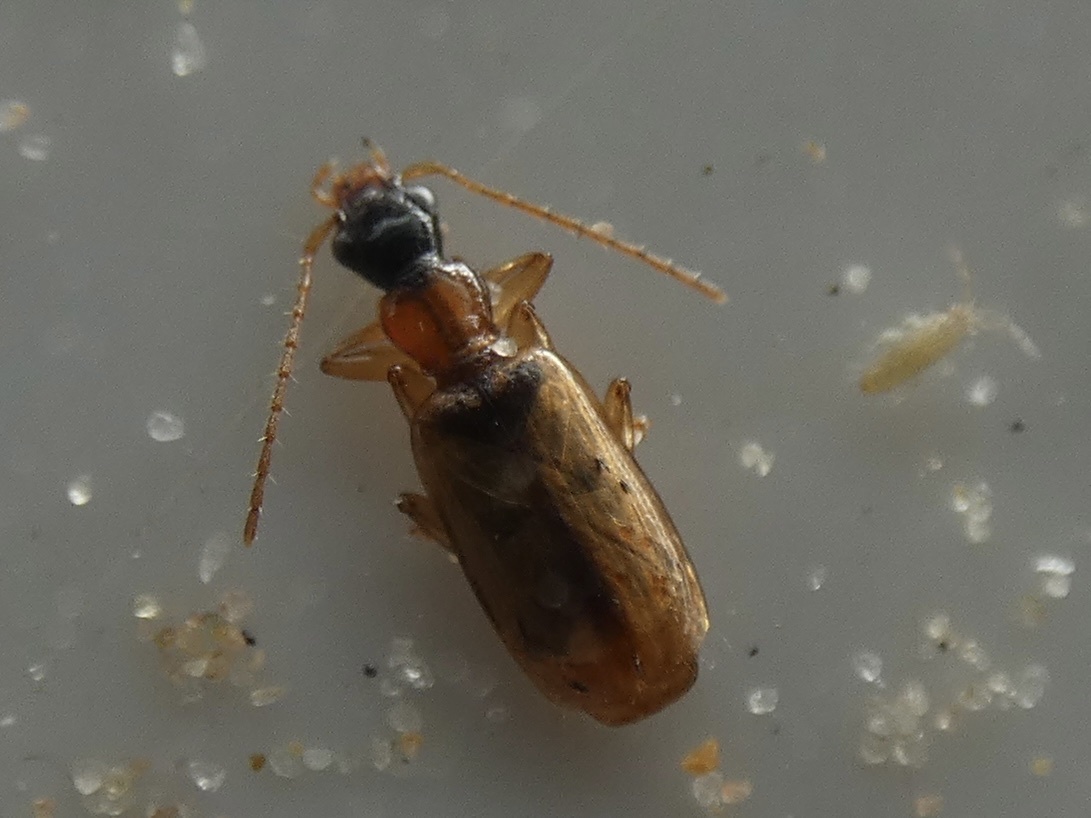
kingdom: Animalia
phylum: Arthropoda
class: Insecta
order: Coleoptera
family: Carabidae
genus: Demetrias
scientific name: Demetrias atricapillus
